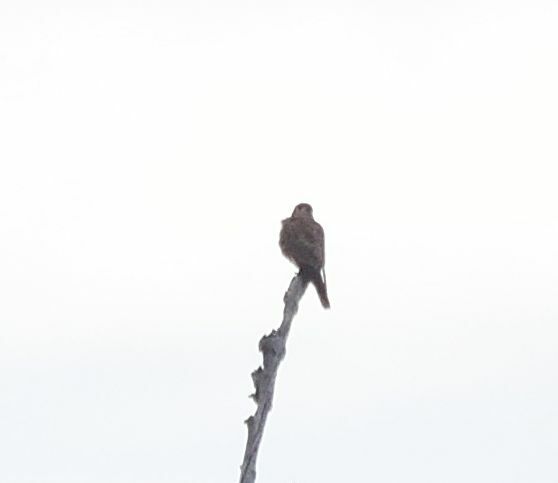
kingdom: Animalia
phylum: Chordata
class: Aves
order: Falconiformes
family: Falconidae
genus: Falco
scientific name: Falco sparverius
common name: American kestrel
